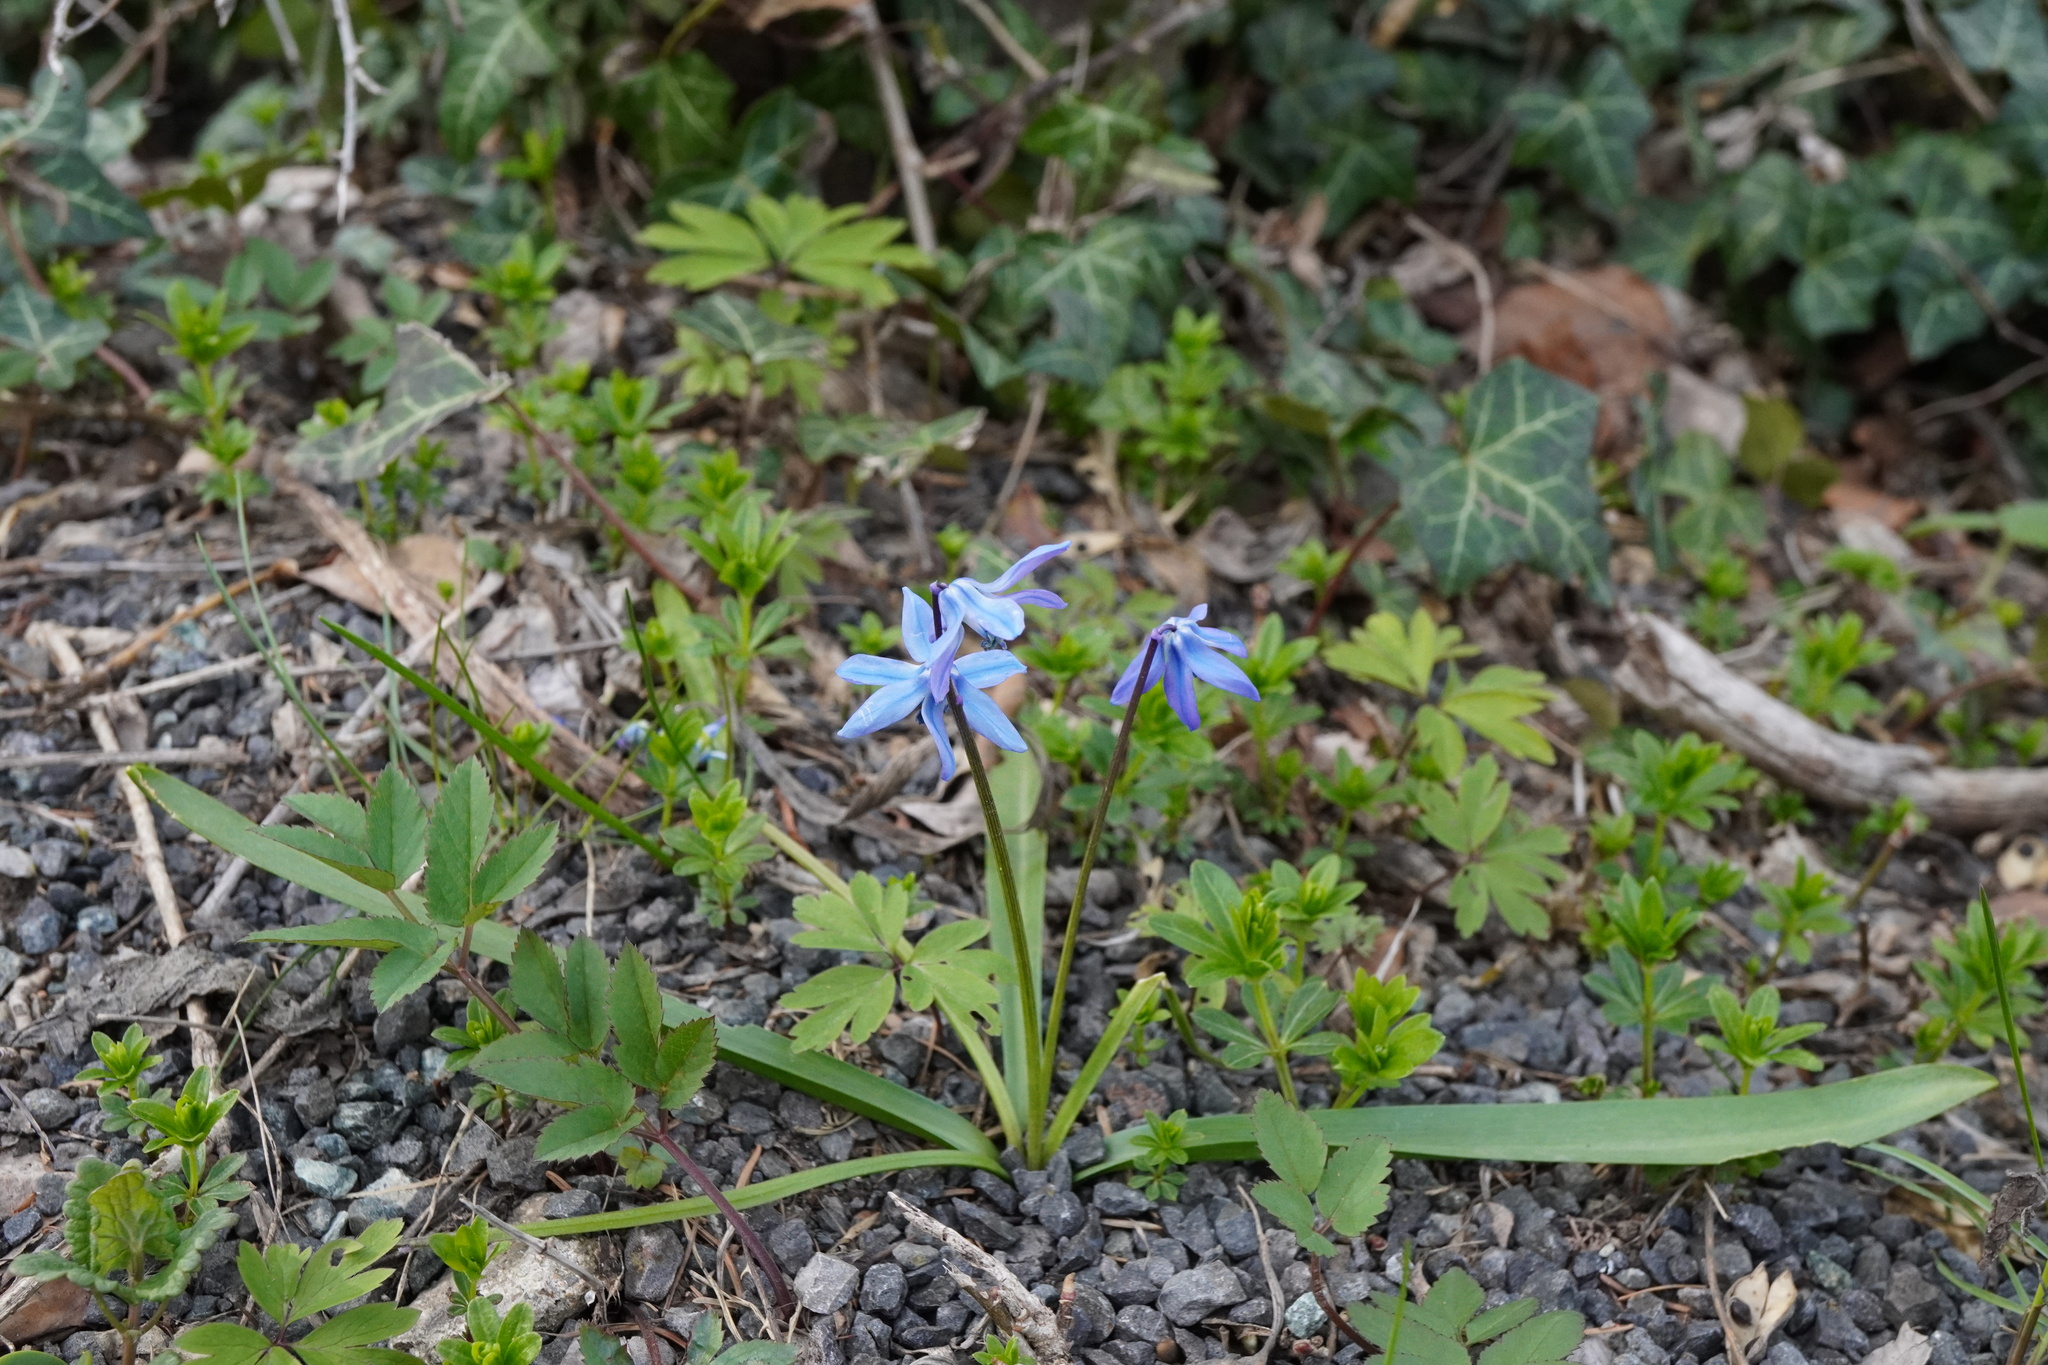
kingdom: Plantae
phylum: Tracheophyta
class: Liliopsida
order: Asparagales
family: Asparagaceae
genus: Scilla
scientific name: Scilla siberica
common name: Siberian squill
